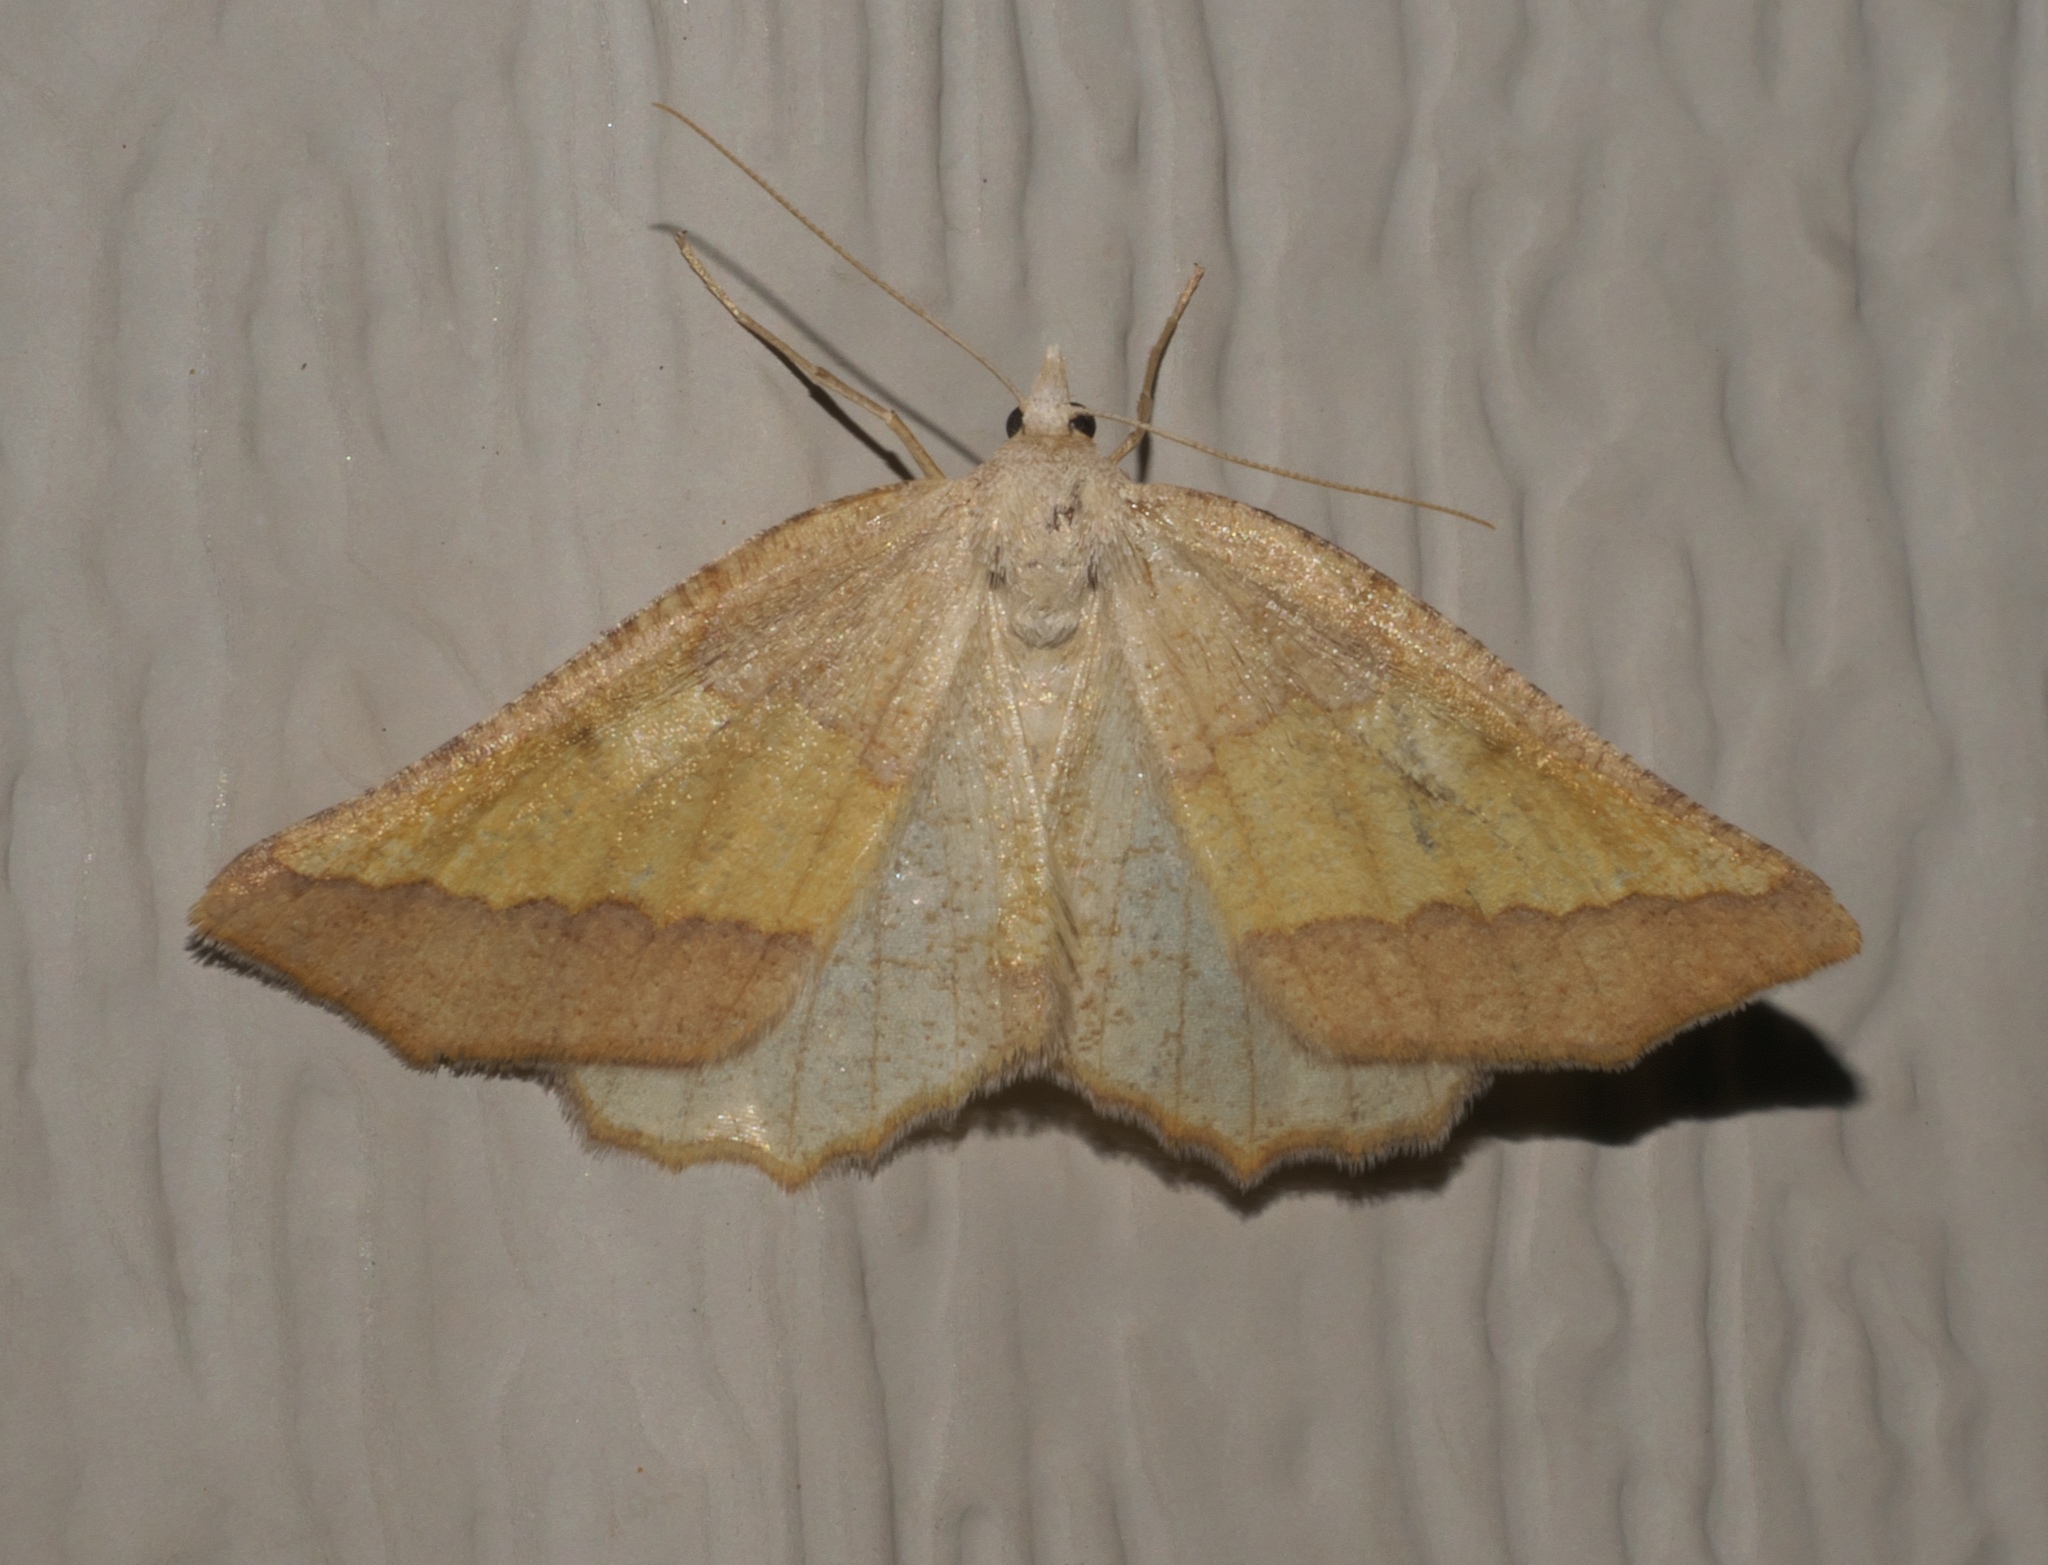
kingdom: Animalia
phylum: Arthropoda
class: Insecta
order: Lepidoptera
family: Geometridae
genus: Lychnosea
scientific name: Lychnosea helveolaria
